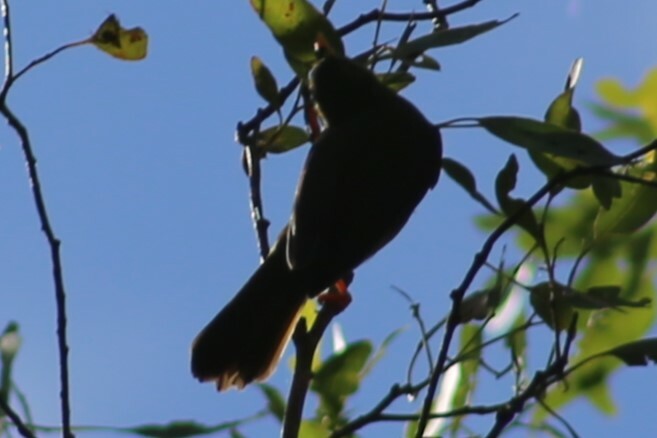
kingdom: Animalia
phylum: Chordata
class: Aves
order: Passeriformes
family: Meliphagidae
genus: Manorina
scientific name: Manorina melanophrys
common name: Bell miner
